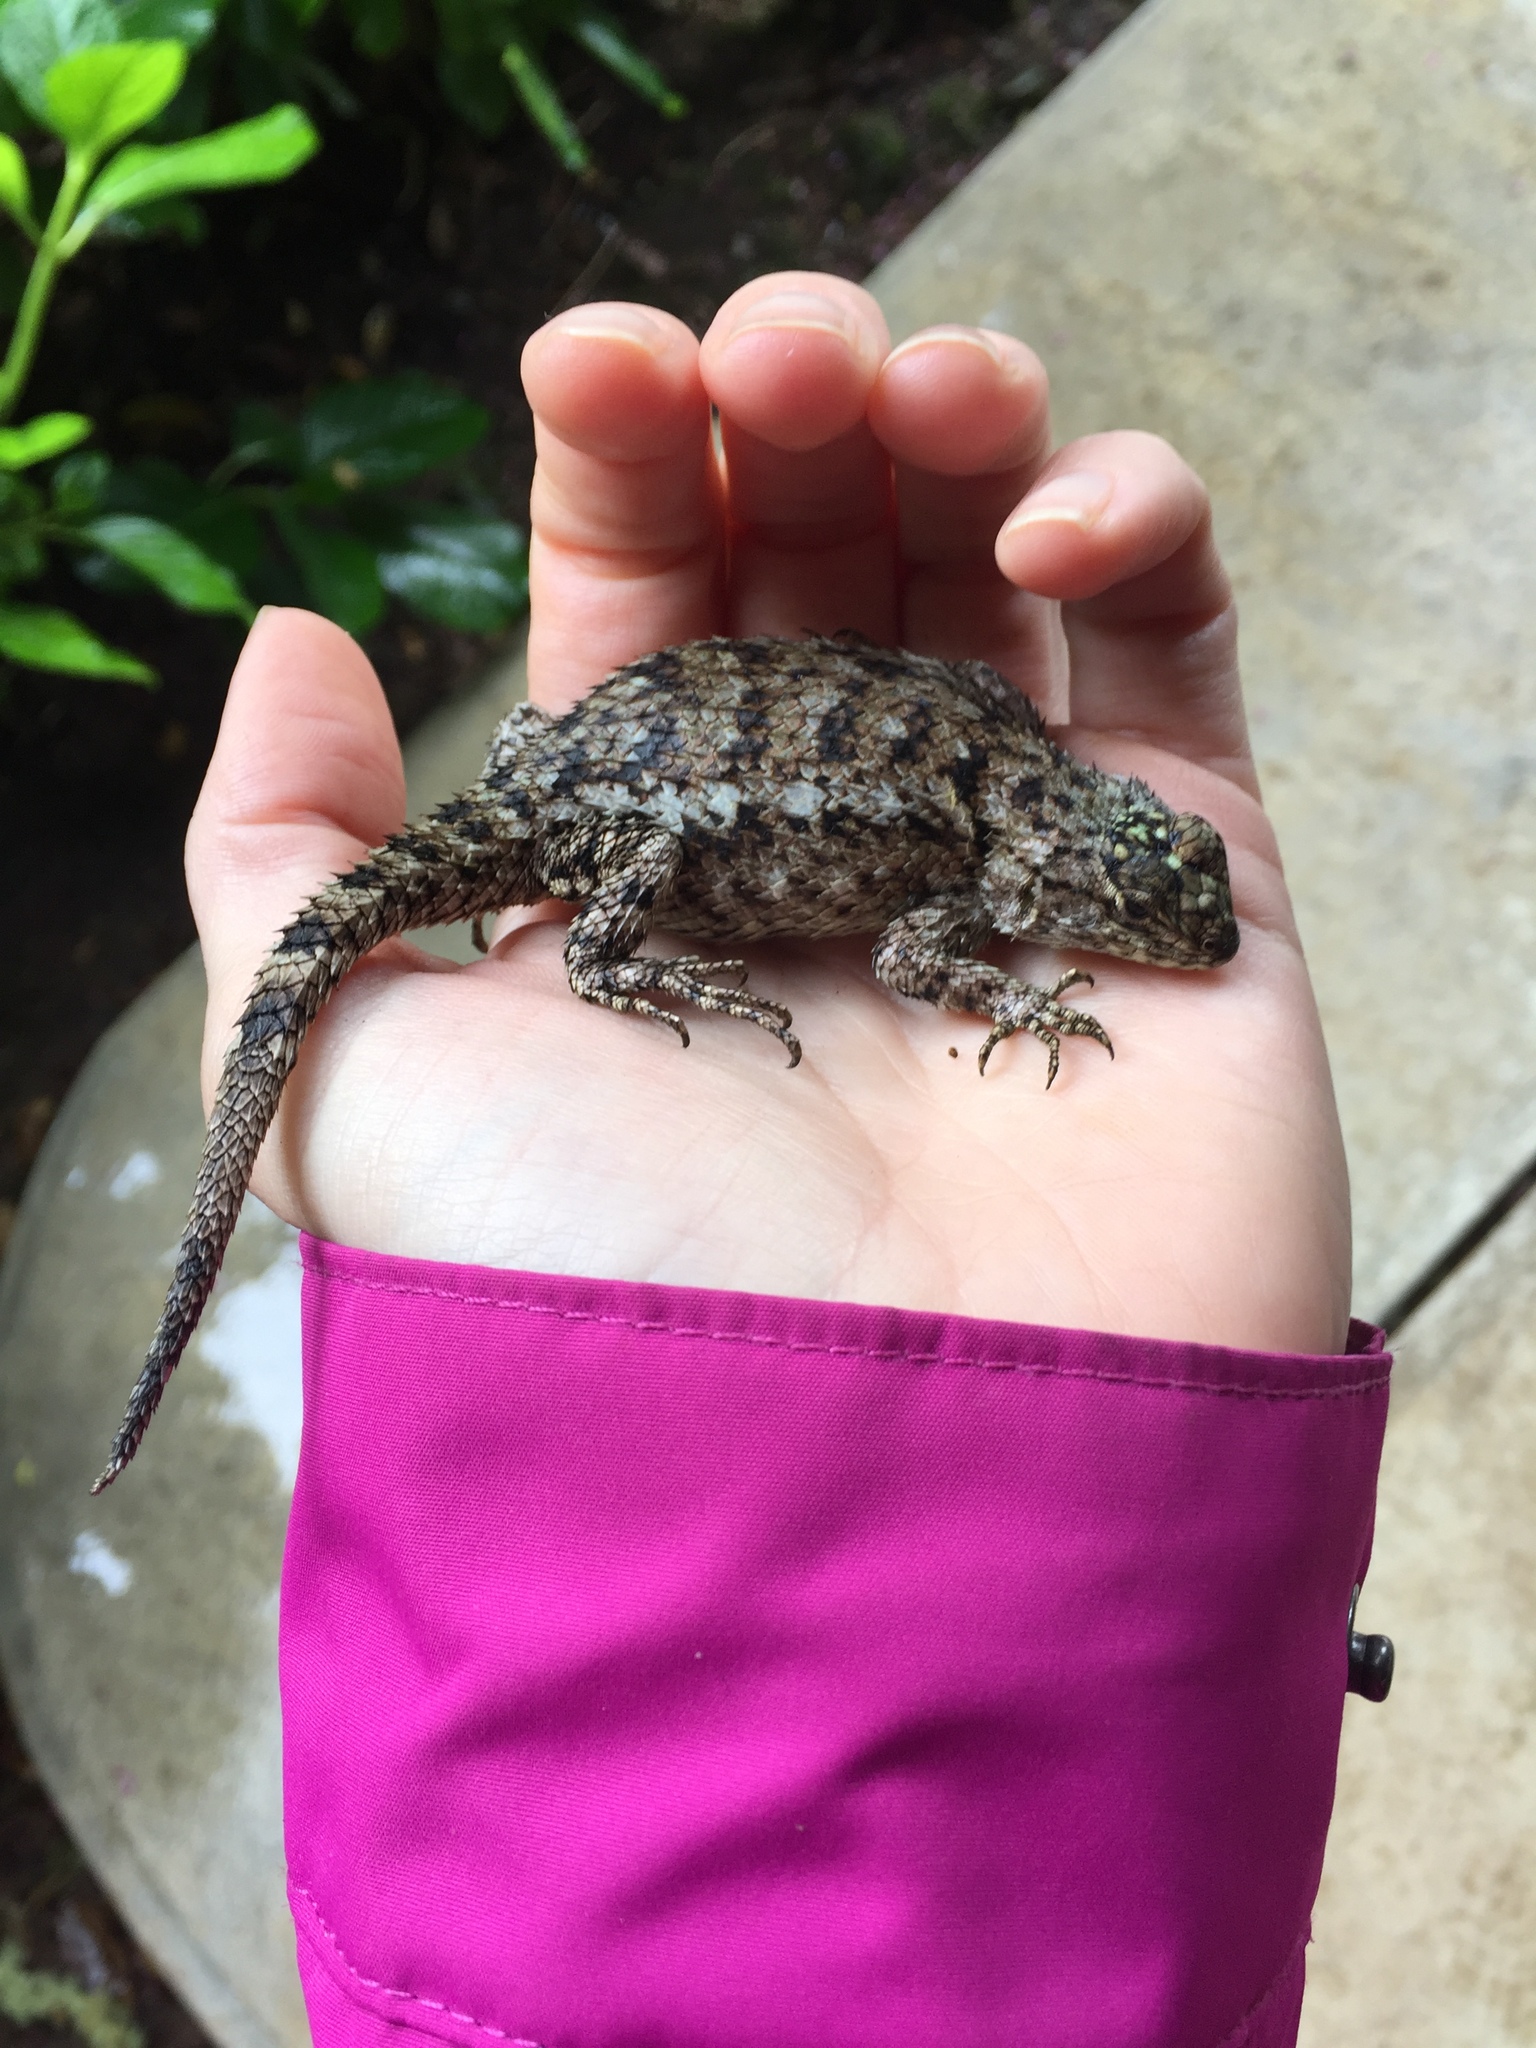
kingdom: Animalia
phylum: Chordata
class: Squamata
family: Phrynosomatidae
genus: Sceloporus
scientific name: Sceloporus malachiticus
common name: Green spiny lizard
